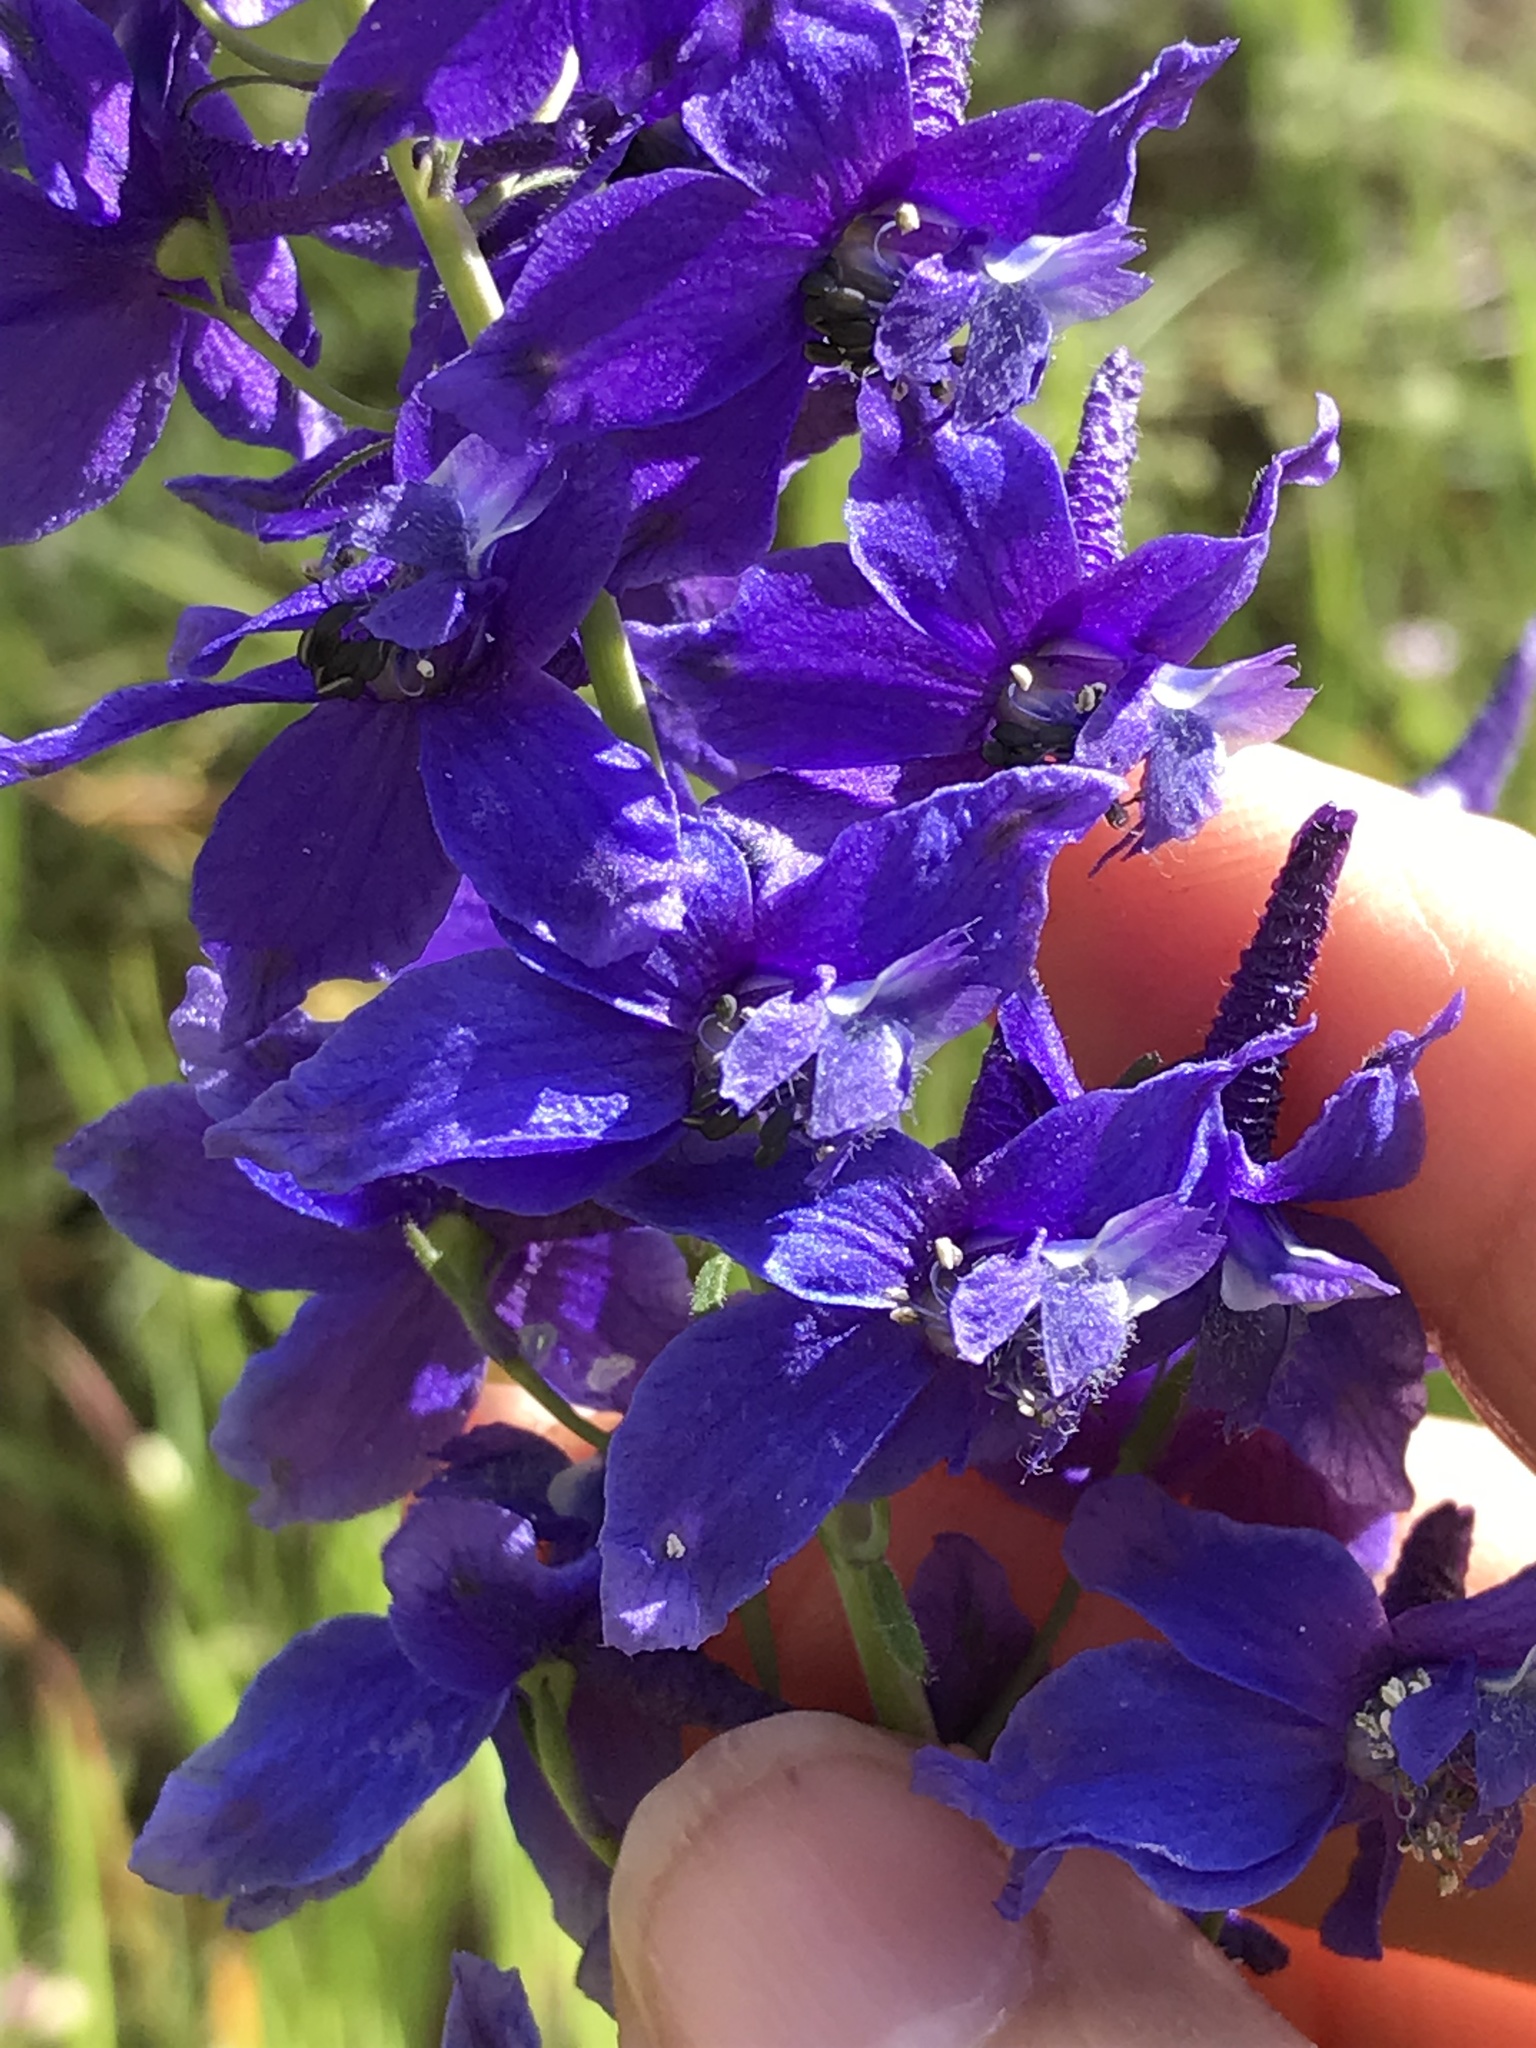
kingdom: Plantae
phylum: Tracheophyta
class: Magnoliopsida
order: Ranunculales
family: Ranunculaceae
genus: Delphinium
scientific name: Delphinium patens
